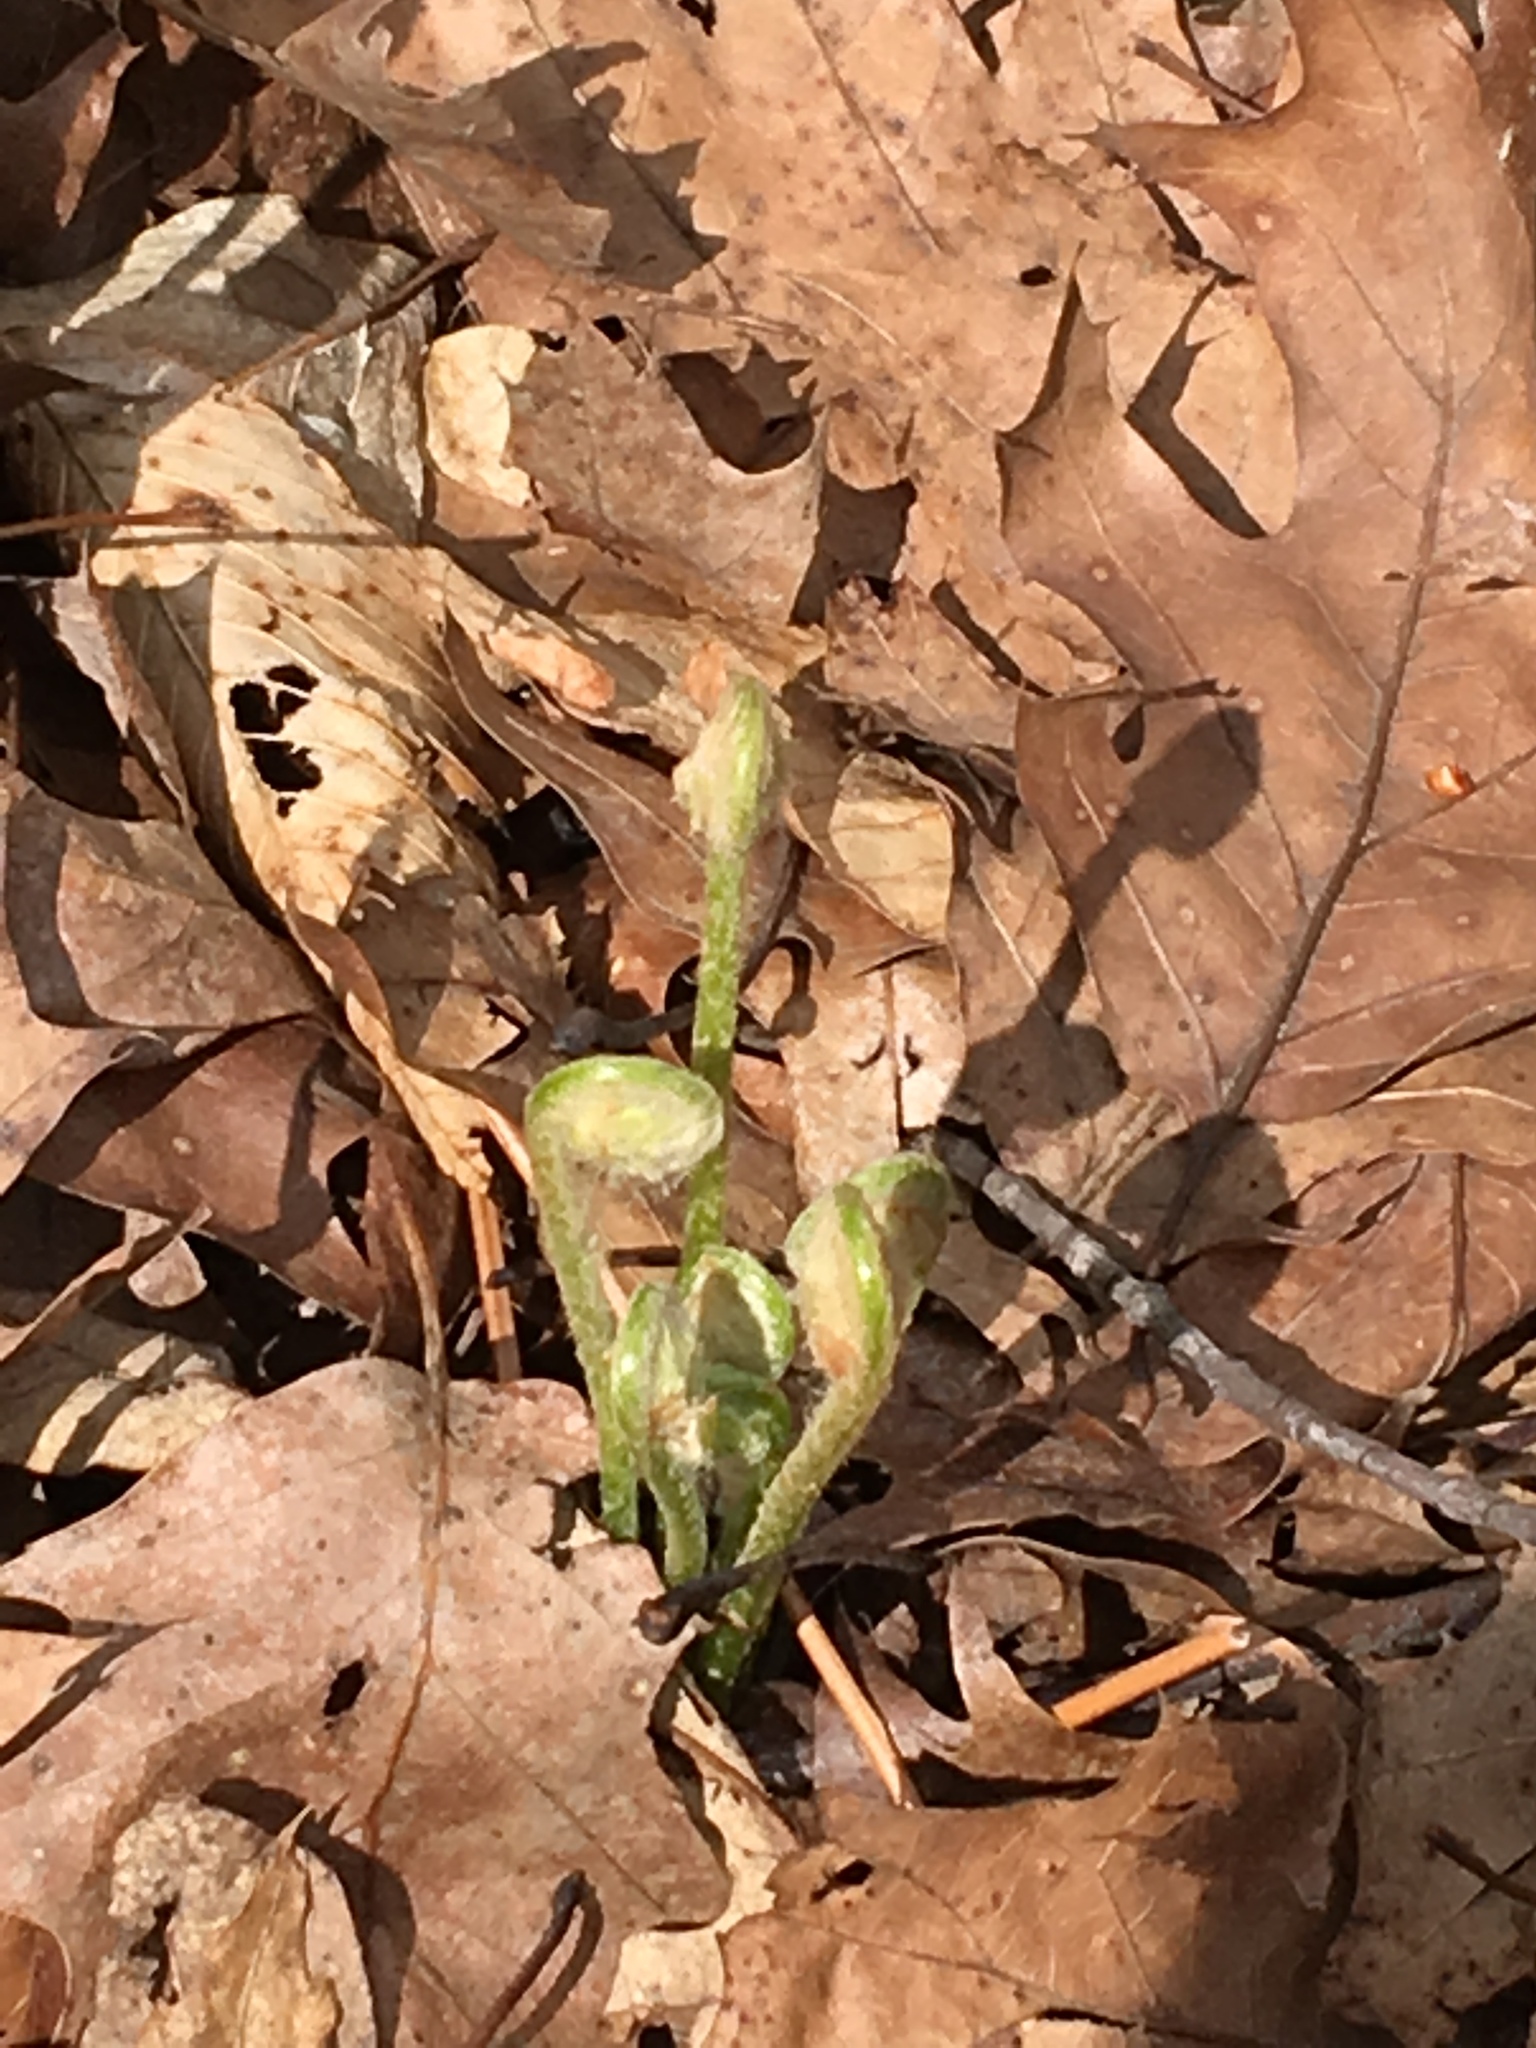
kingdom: Plantae
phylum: Tracheophyta
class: Polypodiopsida
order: Osmundales
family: Osmundaceae
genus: Osmundastrum
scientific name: Osmundastrum cinnamomeum
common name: Cinnamon fern
